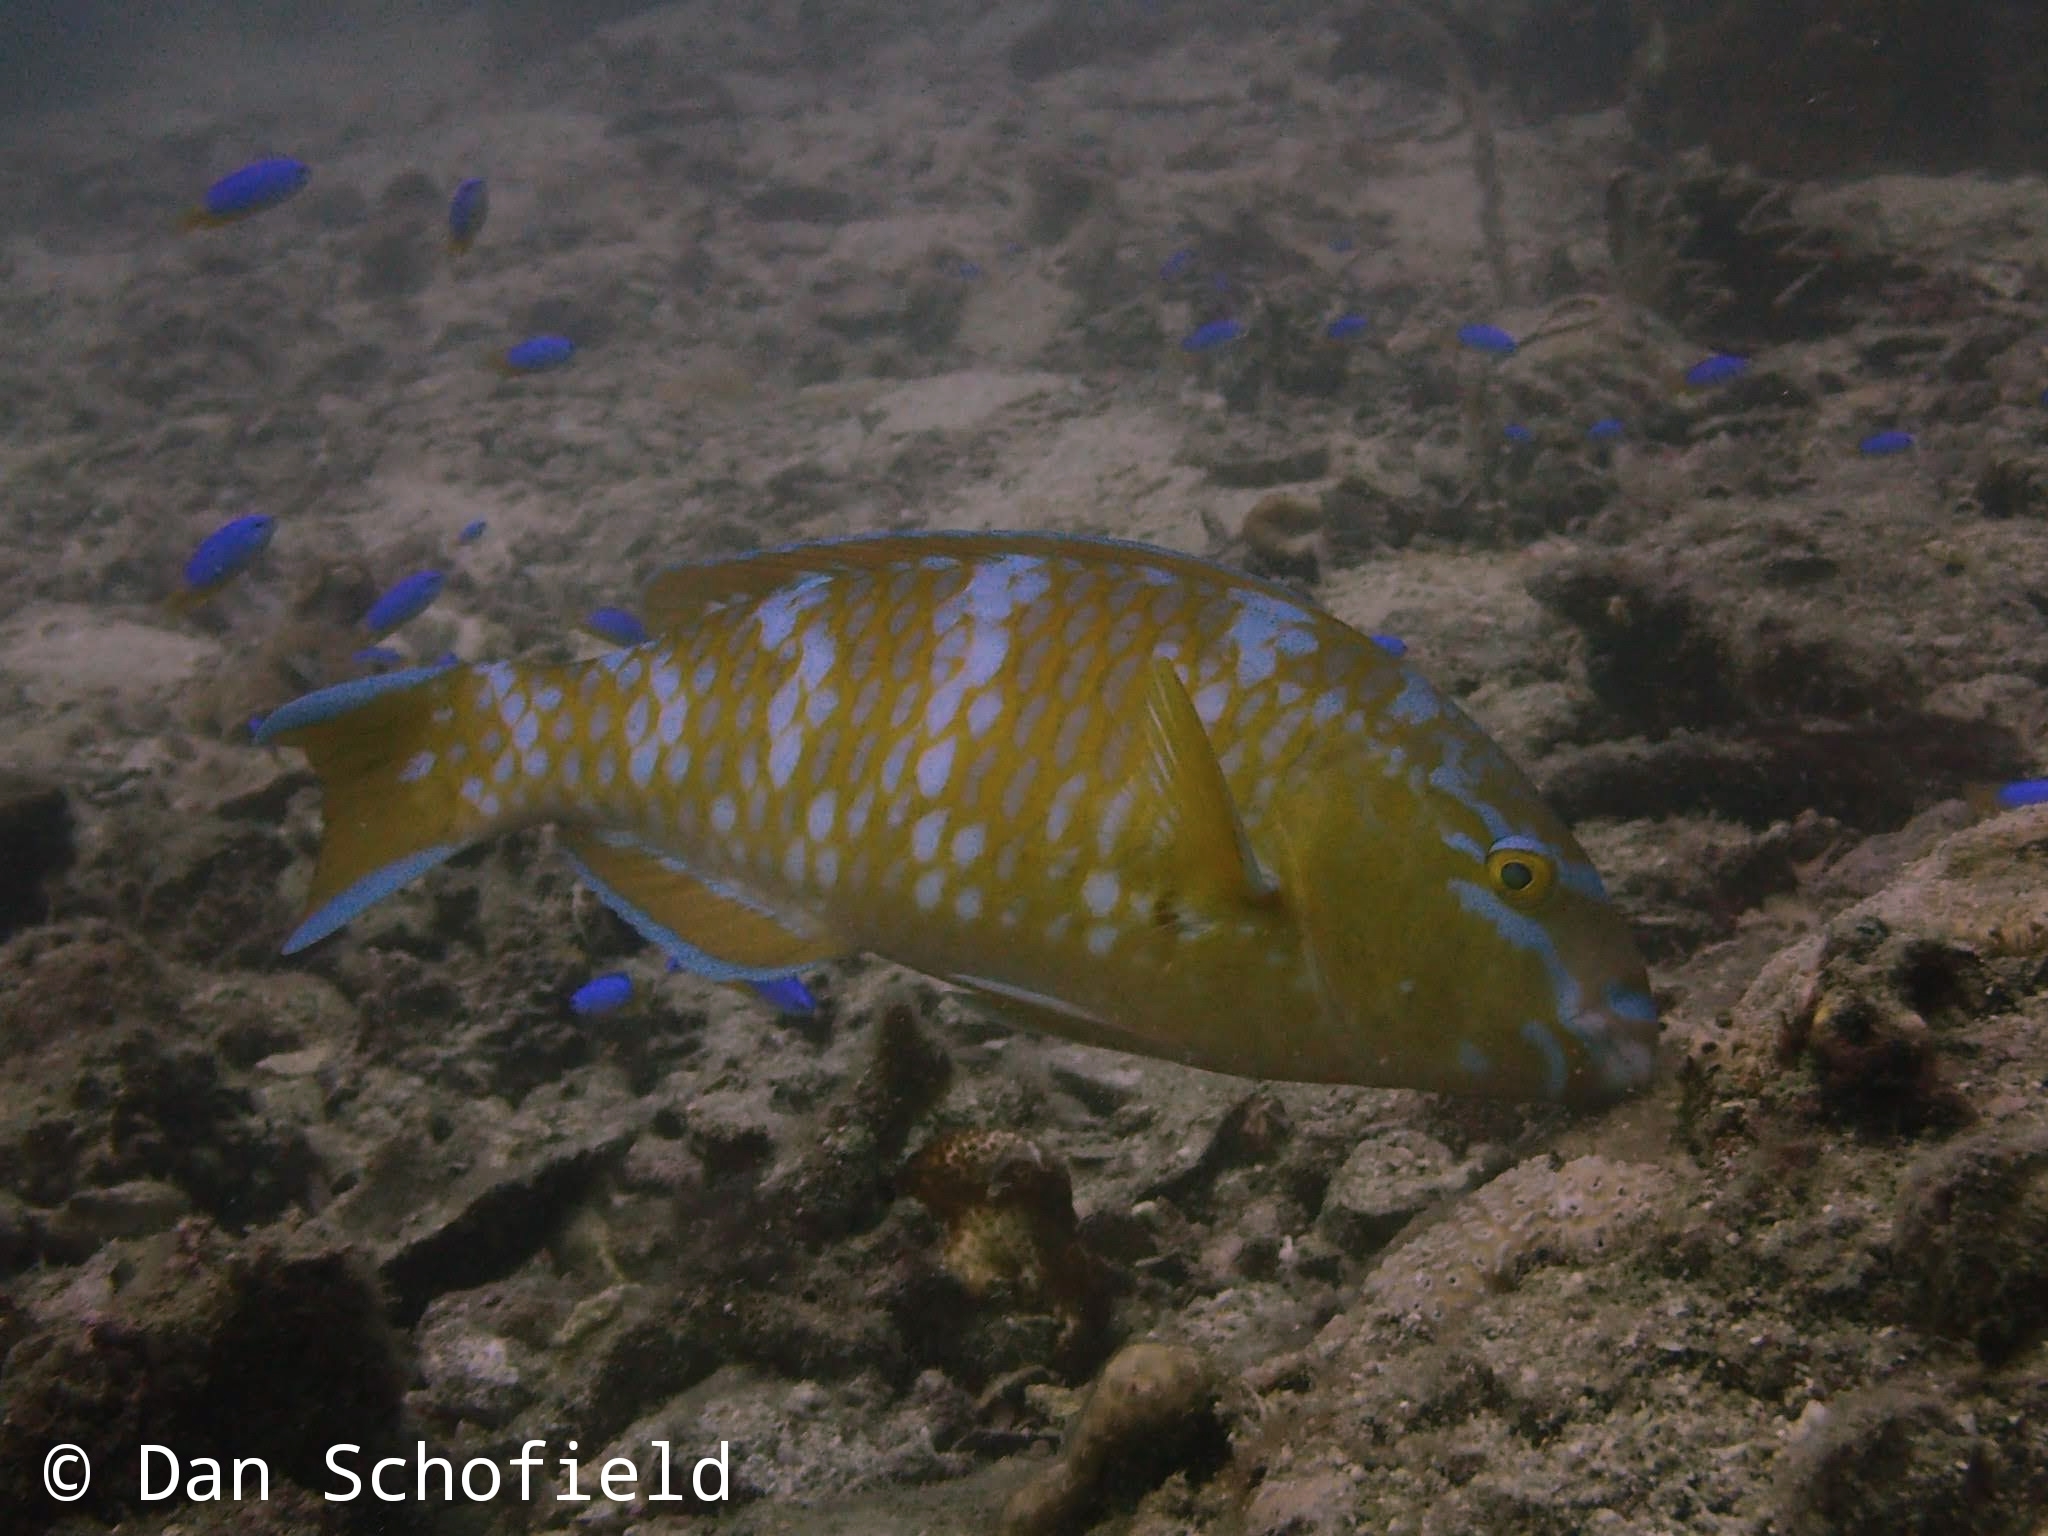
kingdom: Animalia
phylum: Chordata
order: Perciformes
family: Scaridae
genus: Scarus
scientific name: Scarus ghobban
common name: Blue-barred parrotfish
